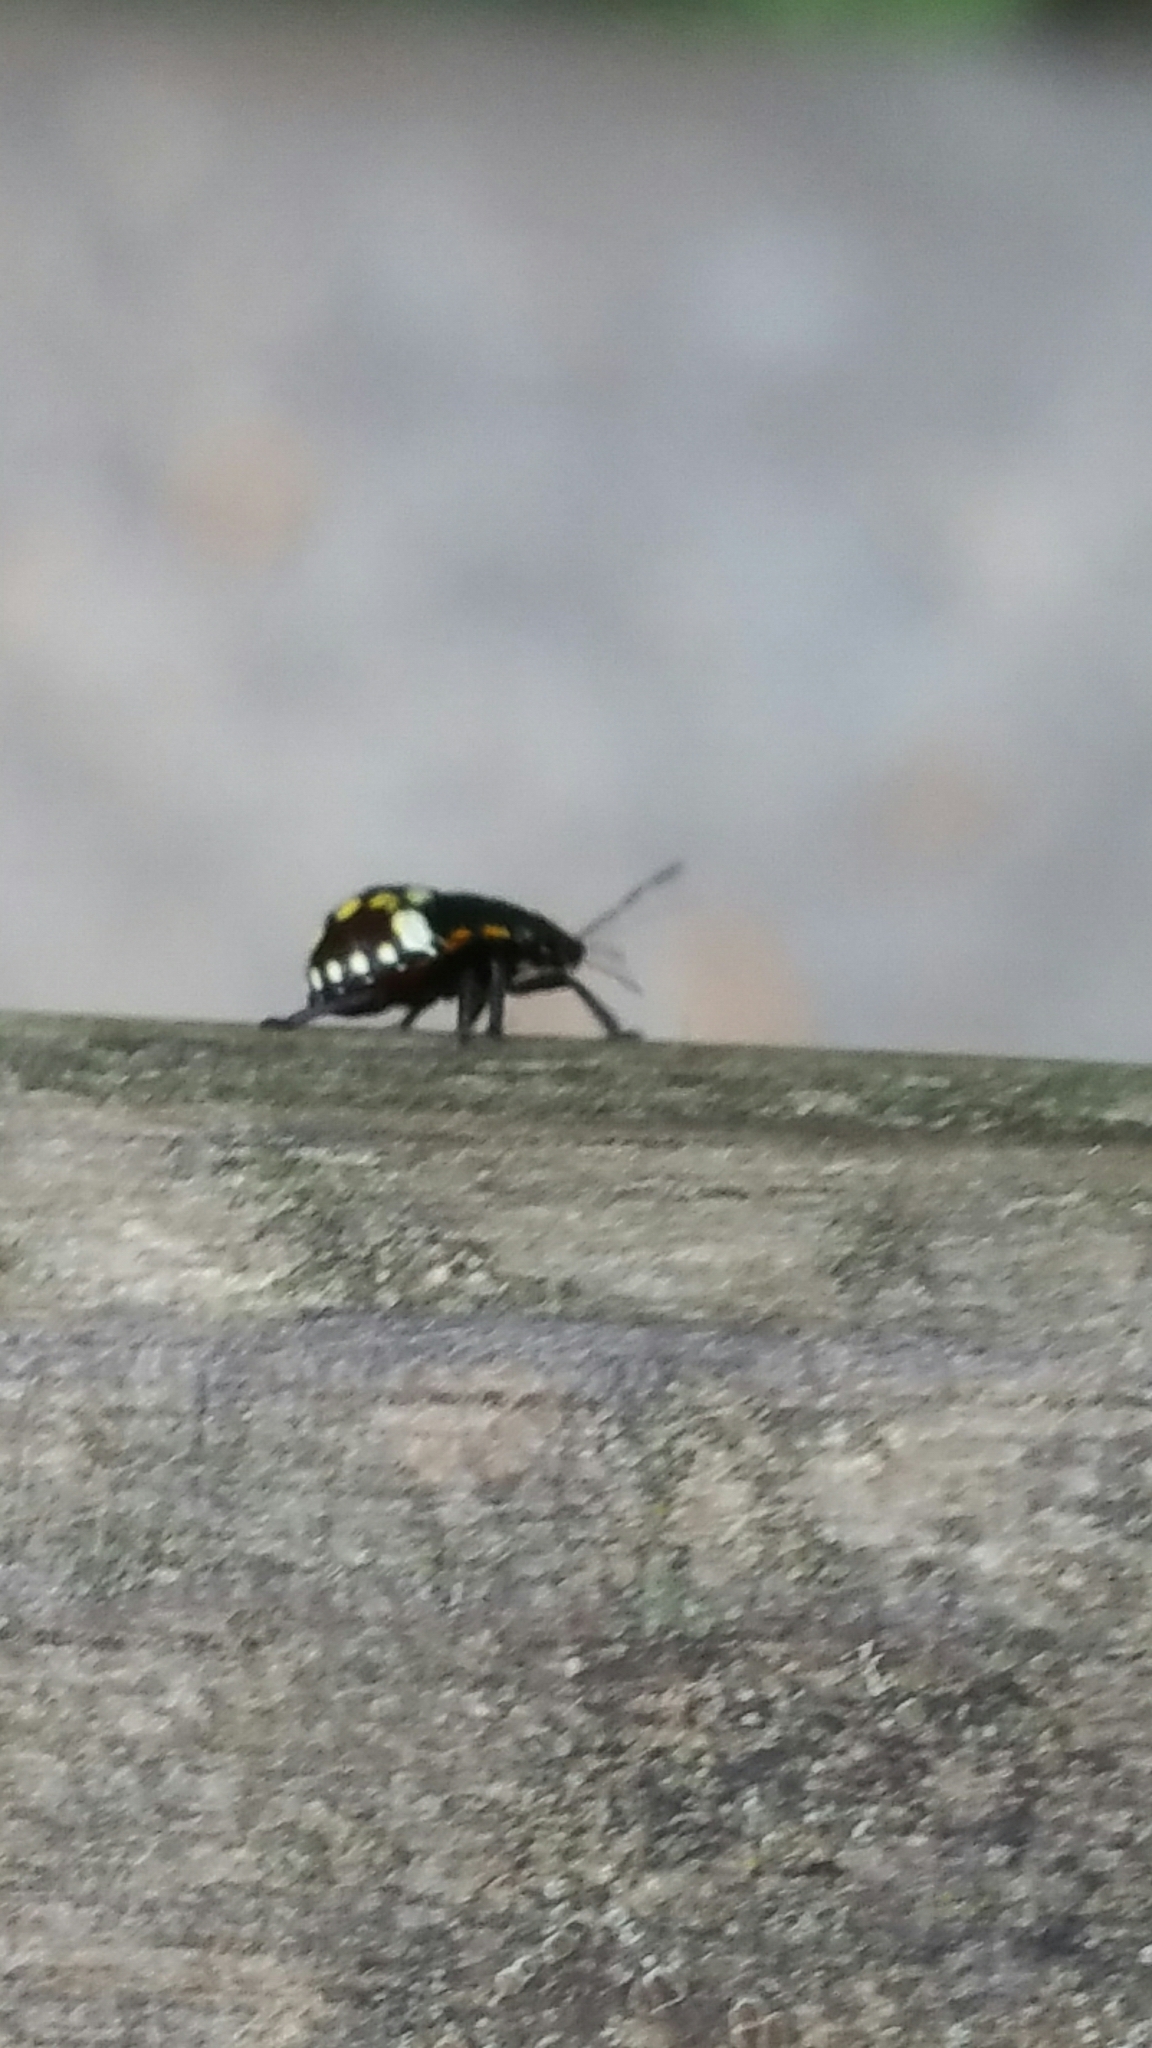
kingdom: Animalia
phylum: Arthropoda
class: Insecta
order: Hemiptera
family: Pentatomidae
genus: Nezara
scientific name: Nezara viridula
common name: Southern green stink bug
